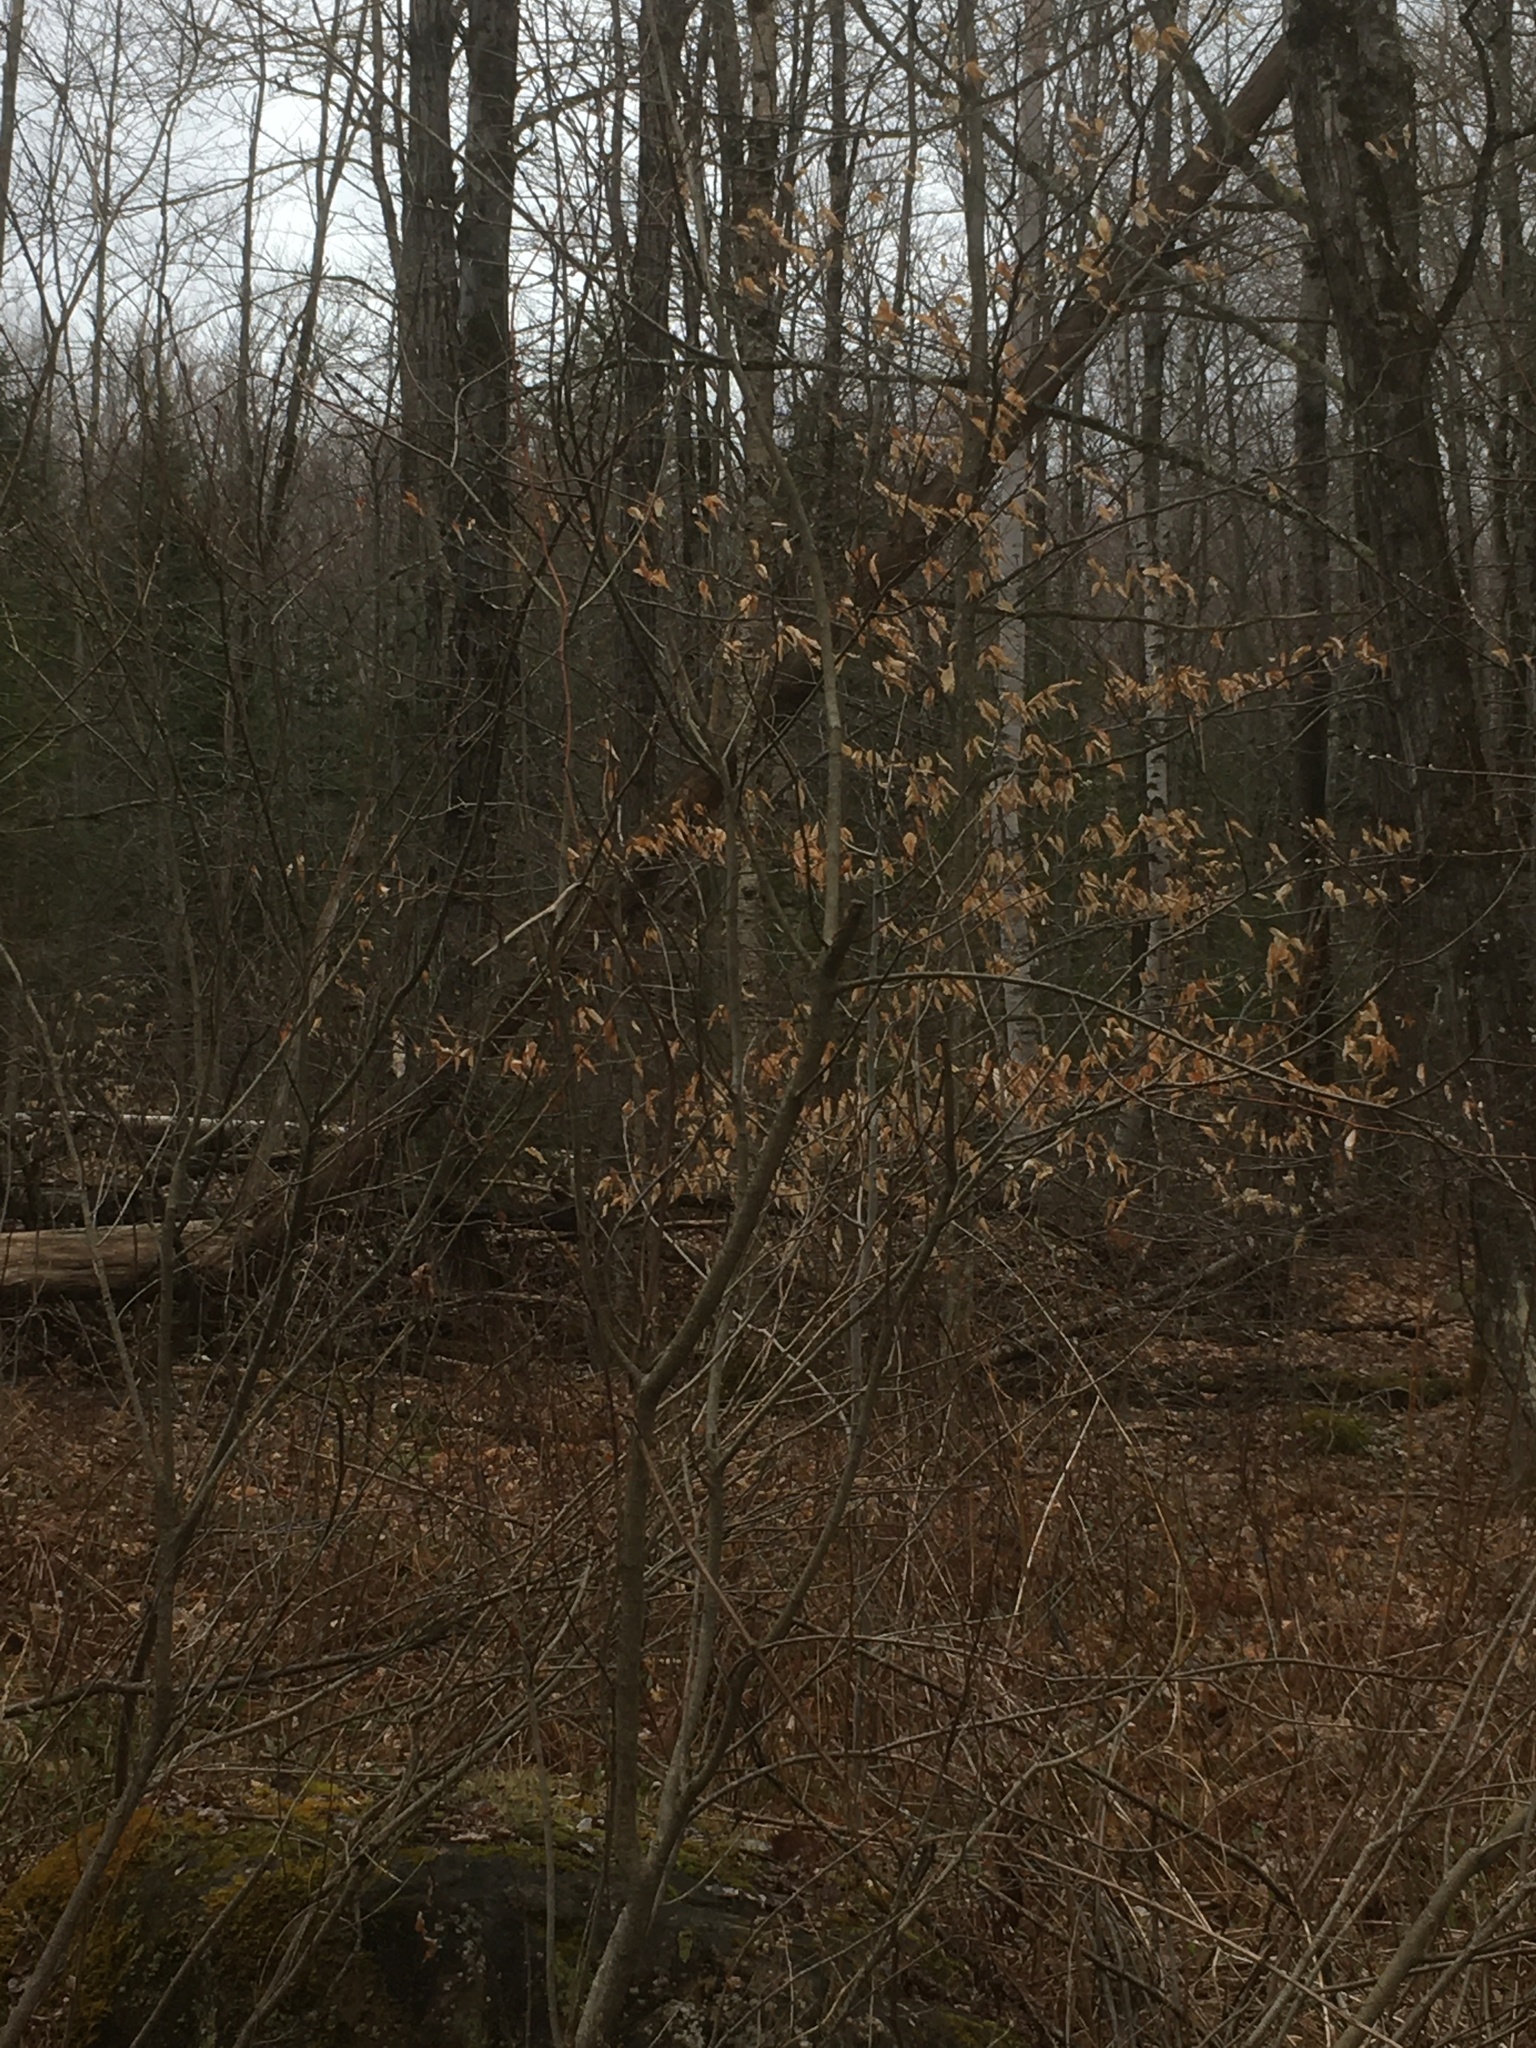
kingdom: Plantae
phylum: Tracheophyta
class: Magnoliopsida
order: Fagales
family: Fagaceae
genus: Fagus
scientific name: Fagus grandifolia
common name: American beech
